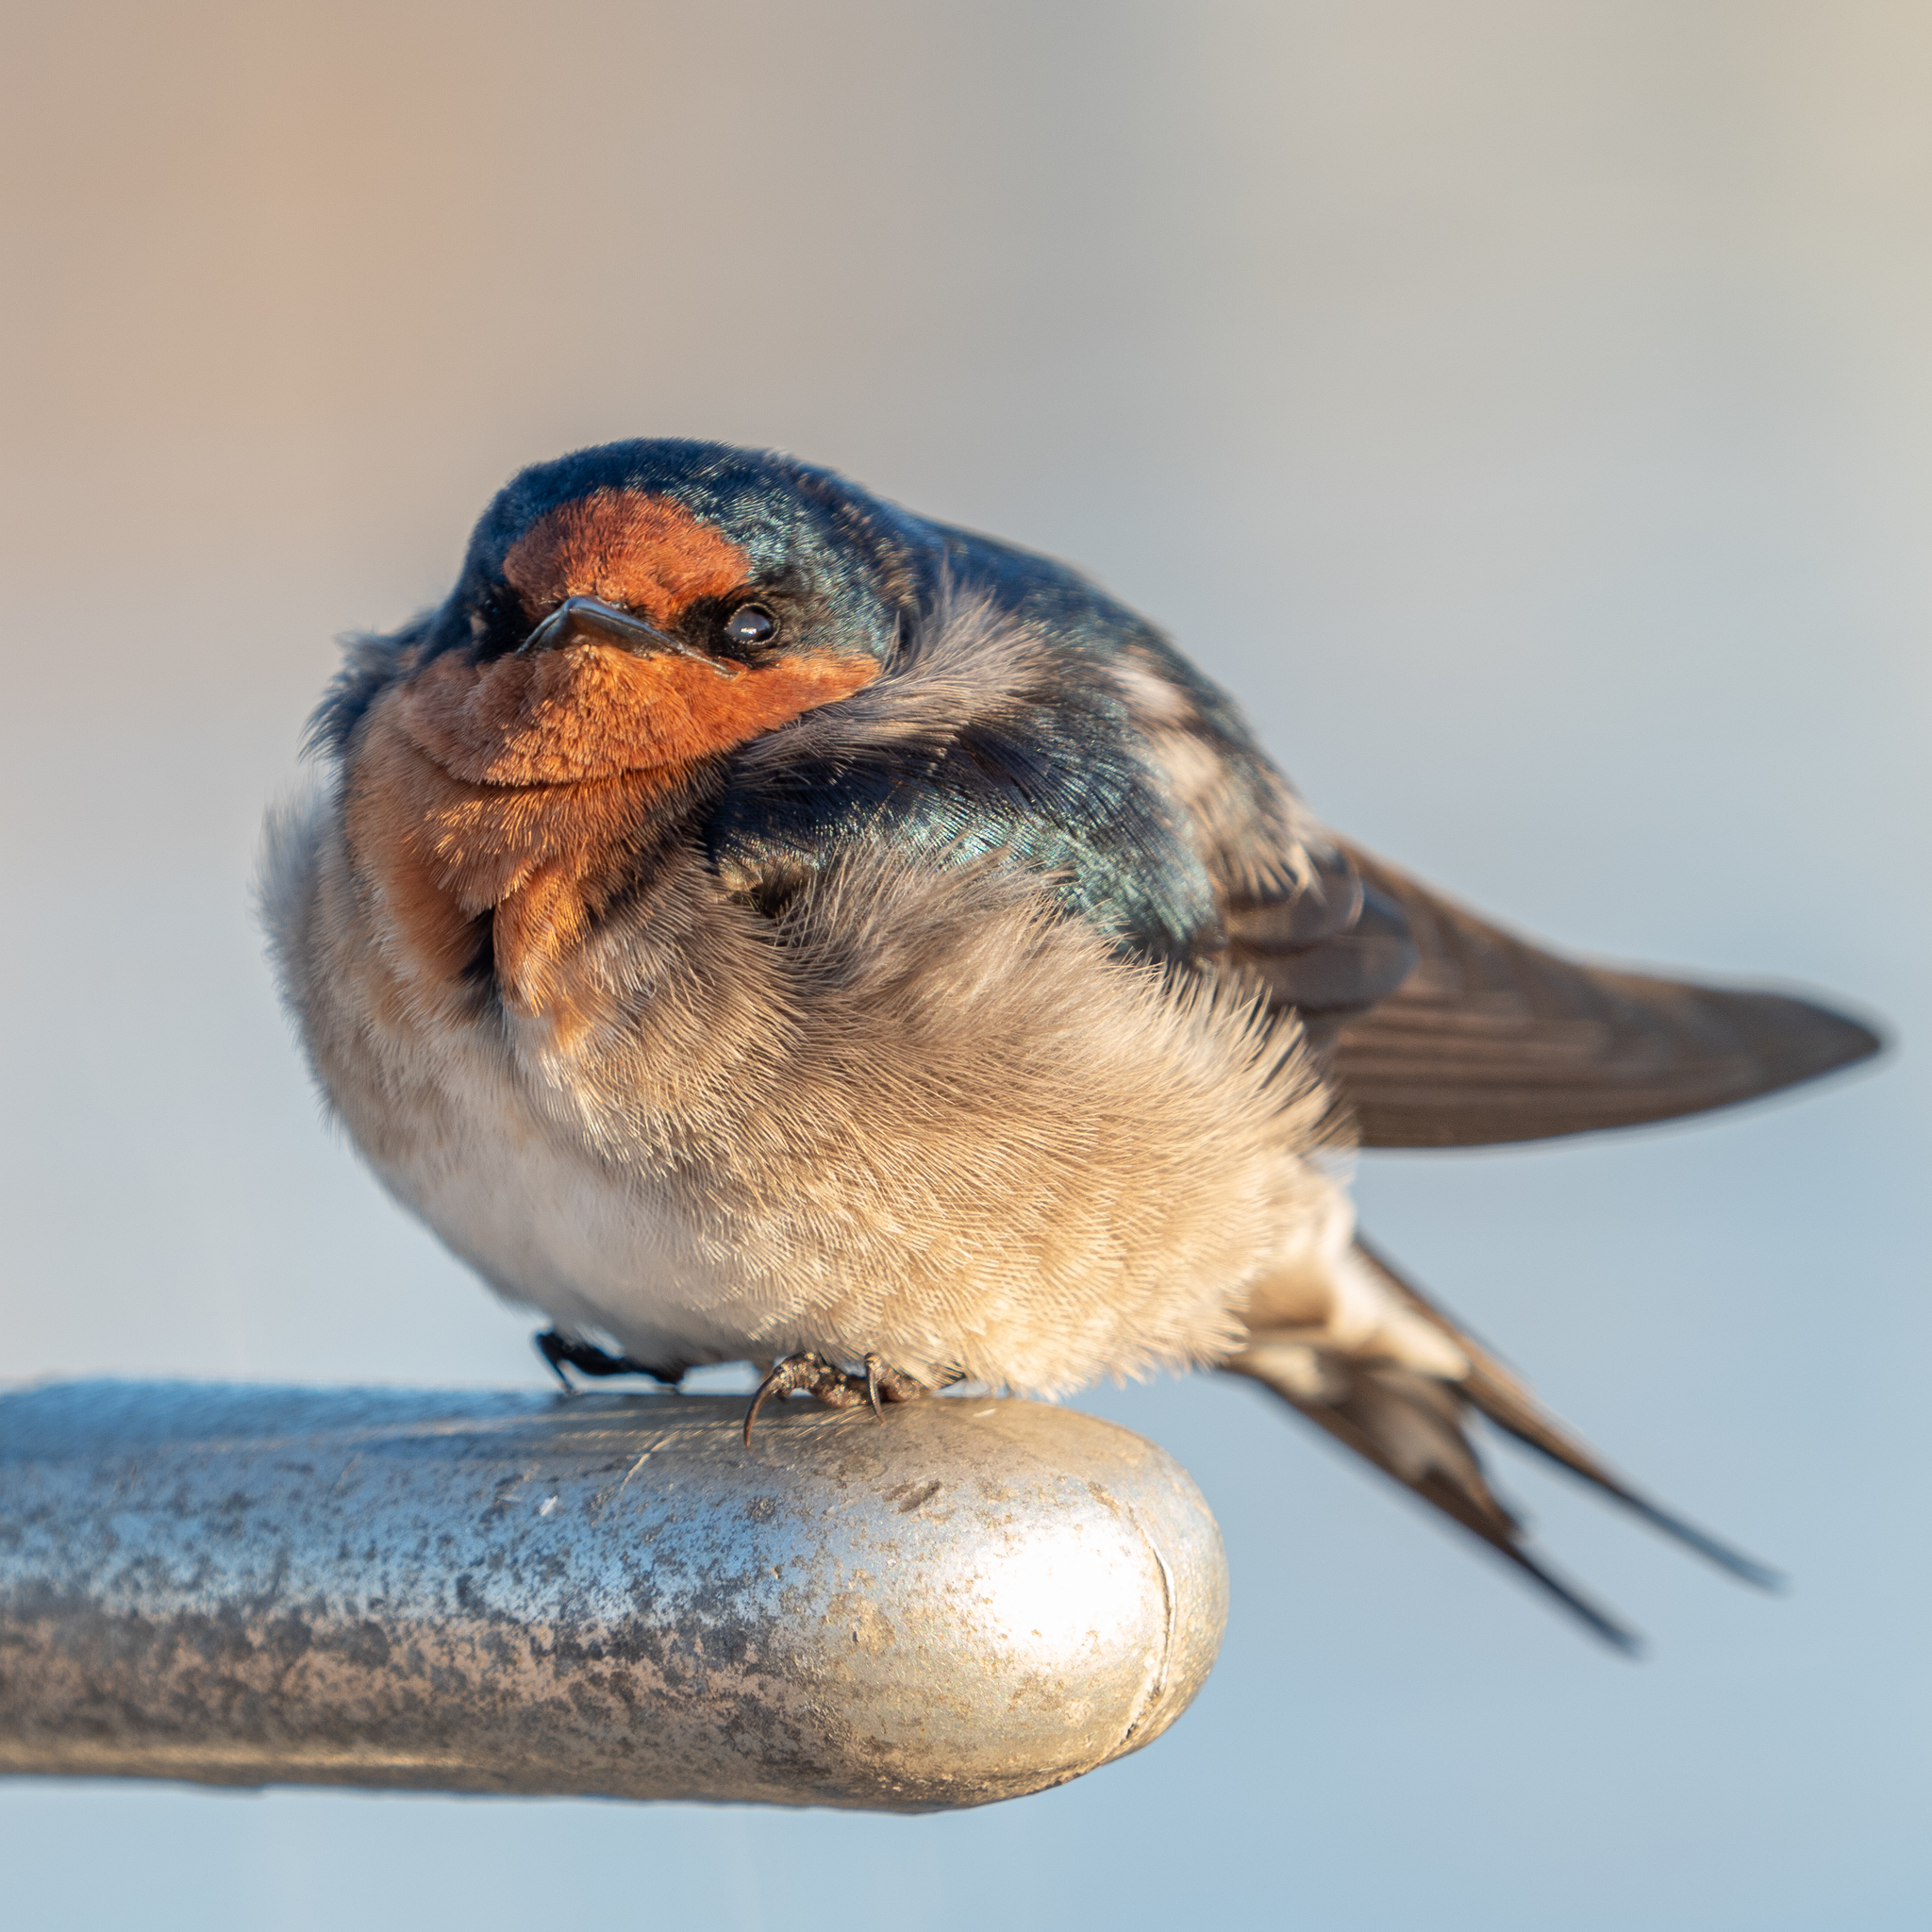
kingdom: Animalia
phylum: Chordata
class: Aves
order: Passeriformes
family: Hirundinidae
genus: Hirundo
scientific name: Hirundo neoxena
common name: Welcome swallow
